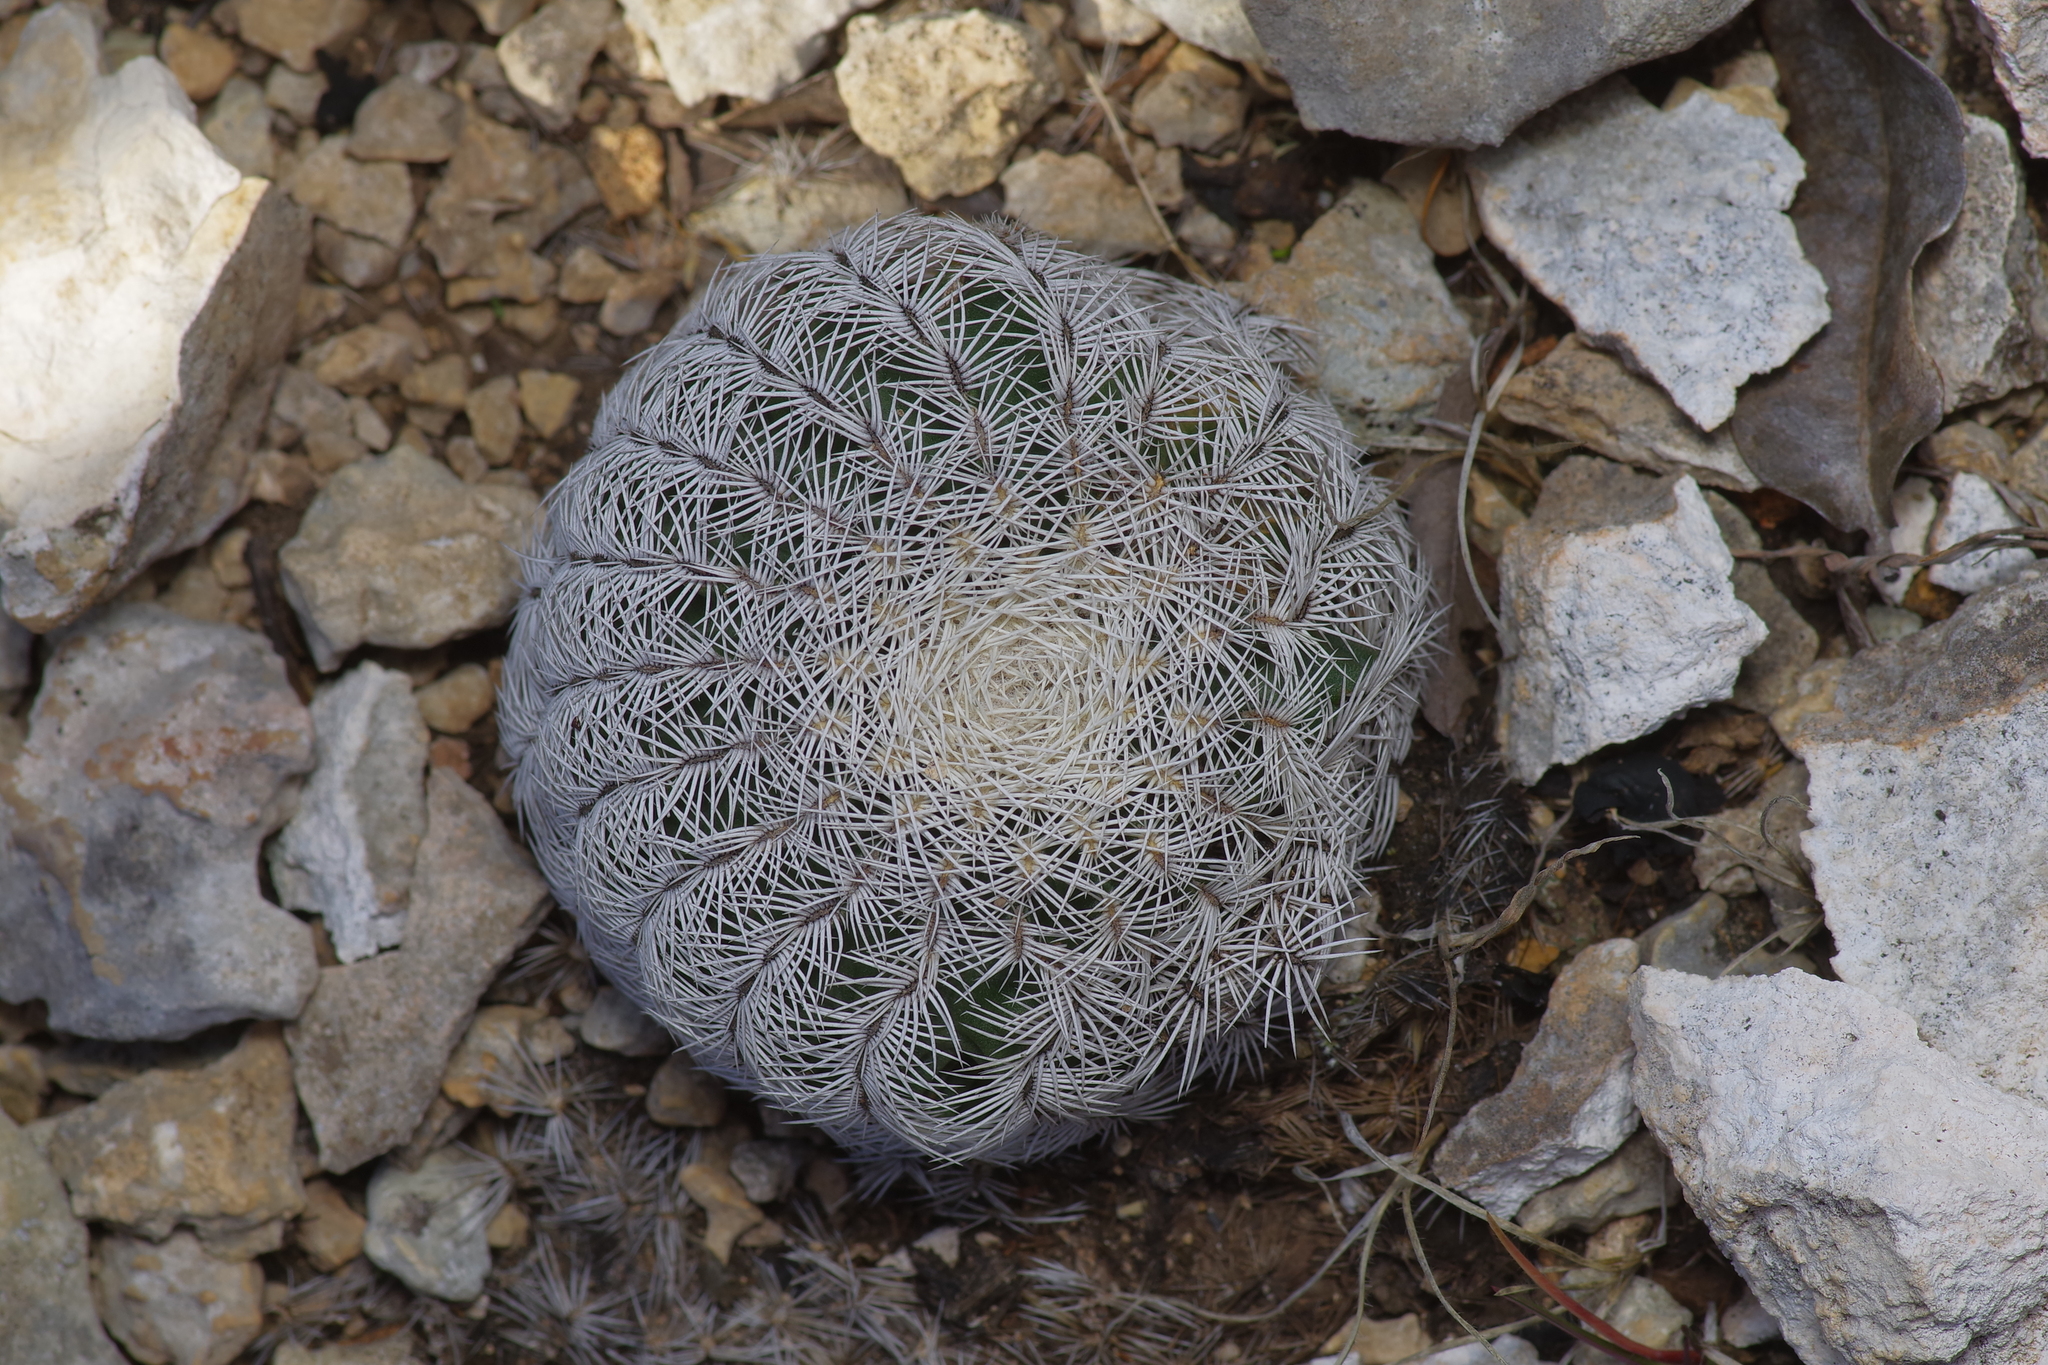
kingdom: Plantae
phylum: Tracheophyta
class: Magnoliopsida
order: Caryophyllales
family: Cactaceae
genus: Echinocereus
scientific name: Echinocereus reichenbachii
